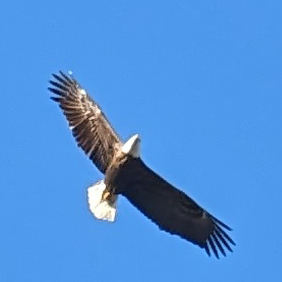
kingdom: Animalia
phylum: Chordata
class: Aves
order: Accipitriformes
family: Accipitridae
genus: Haliaeetus
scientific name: Haliaeetus leucocephalus
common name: Bald eagle
